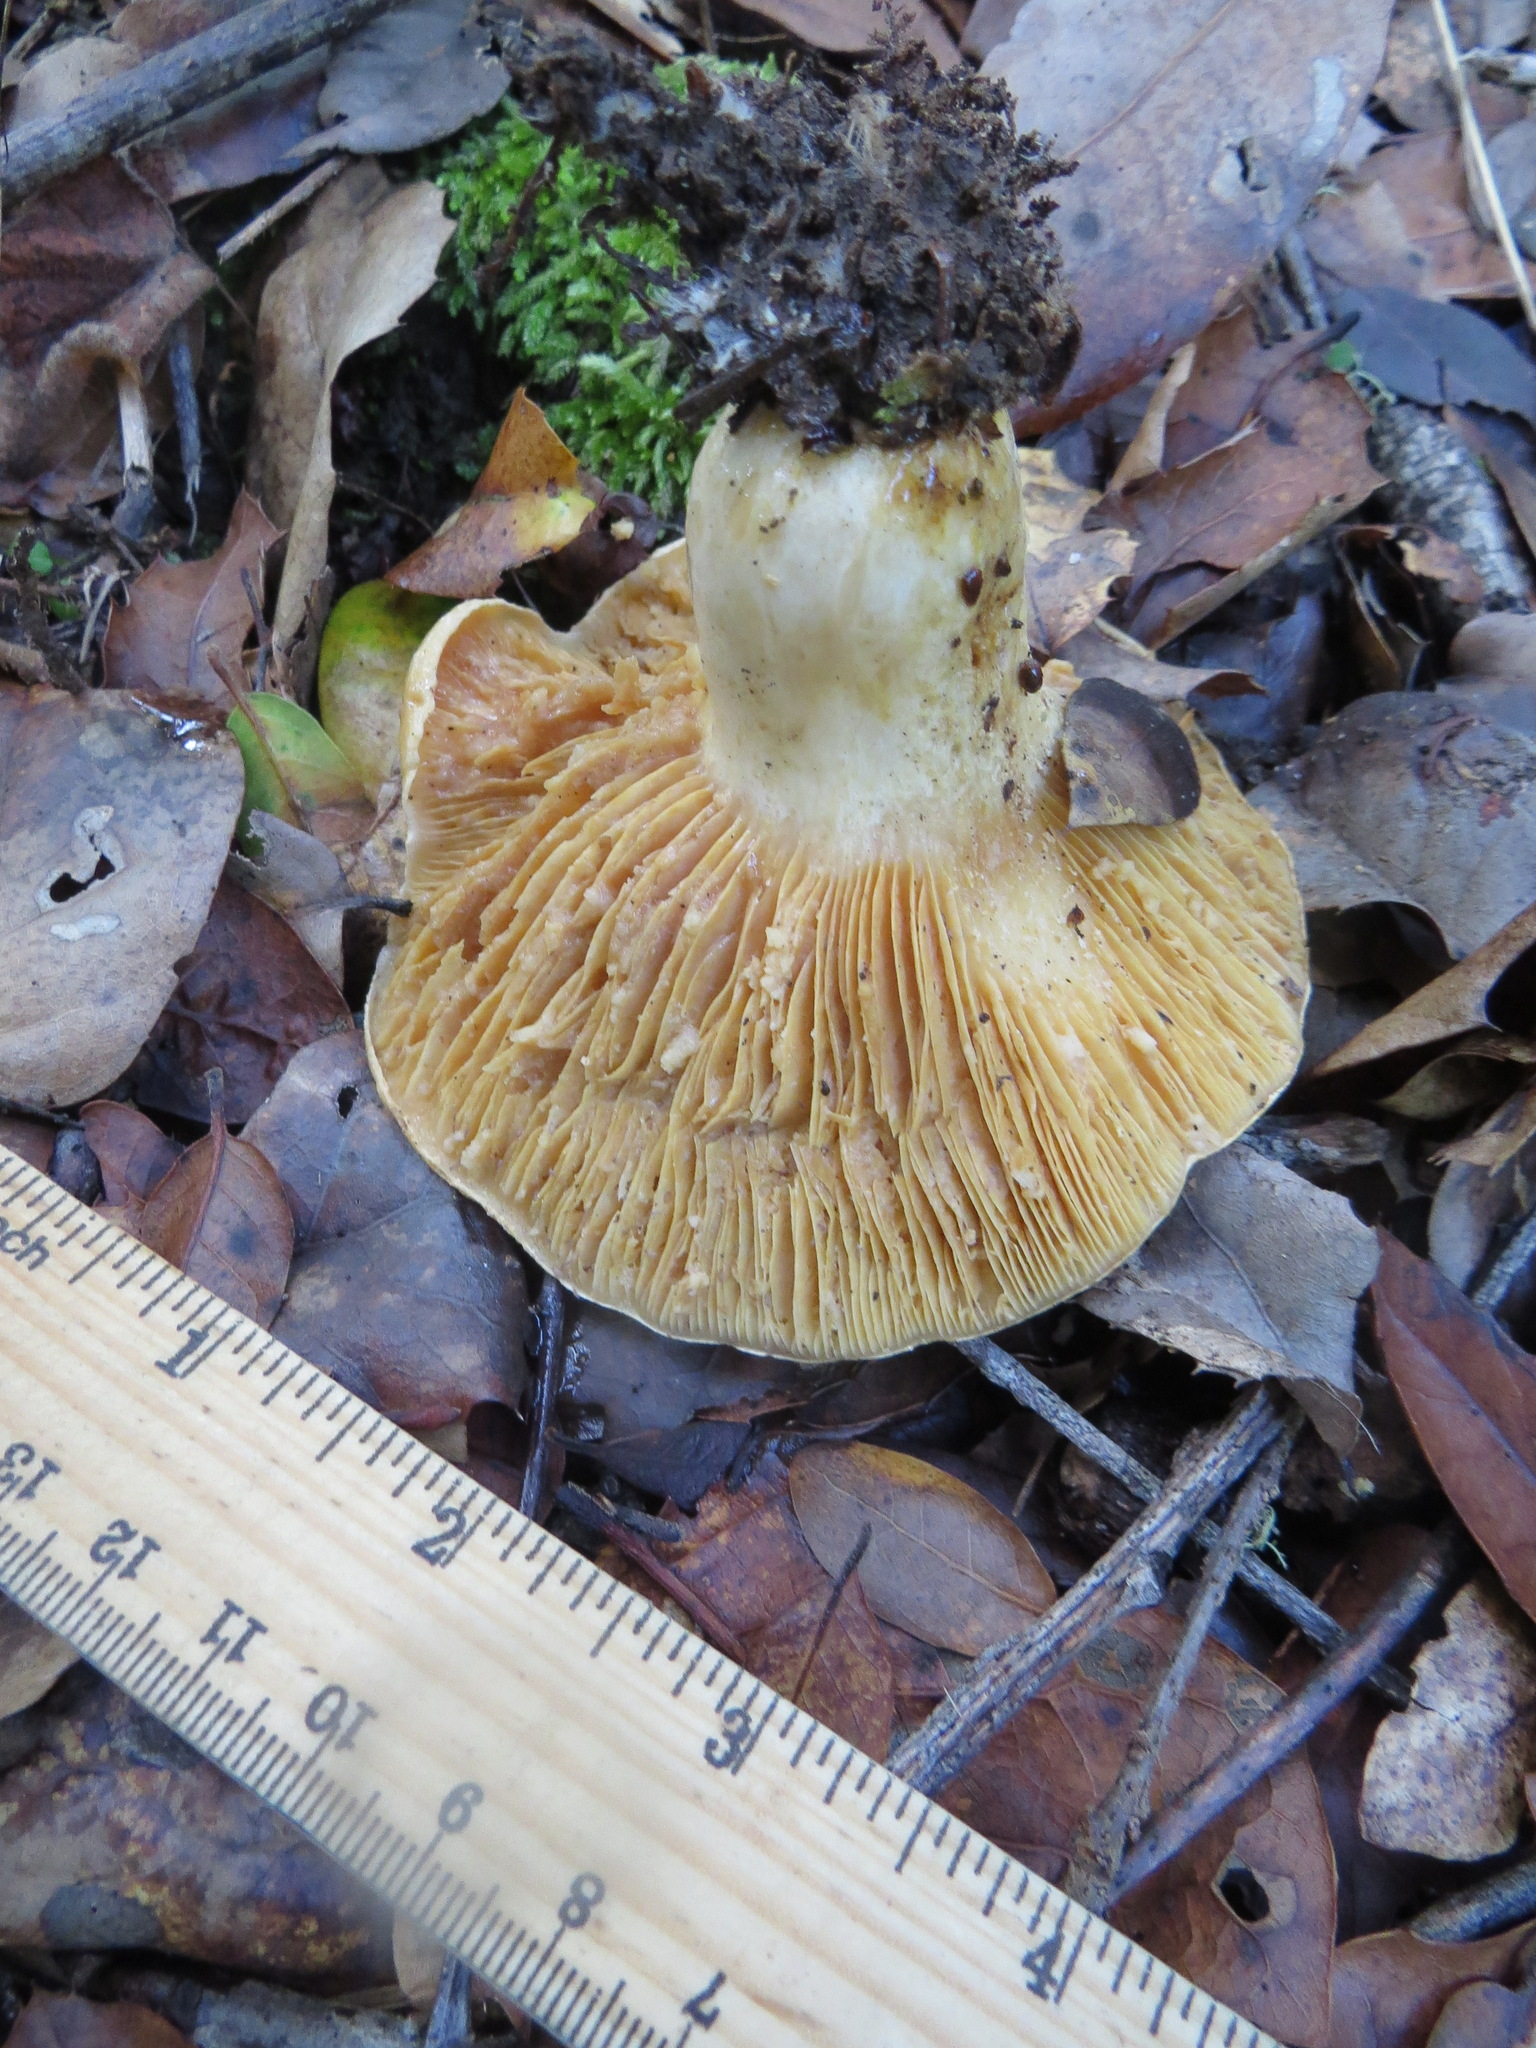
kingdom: Fungi
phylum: Basidiomycota
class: Agaricomycetes
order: Russulales
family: Russulaceae
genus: Lactarius
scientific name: Lactarius alnicola
